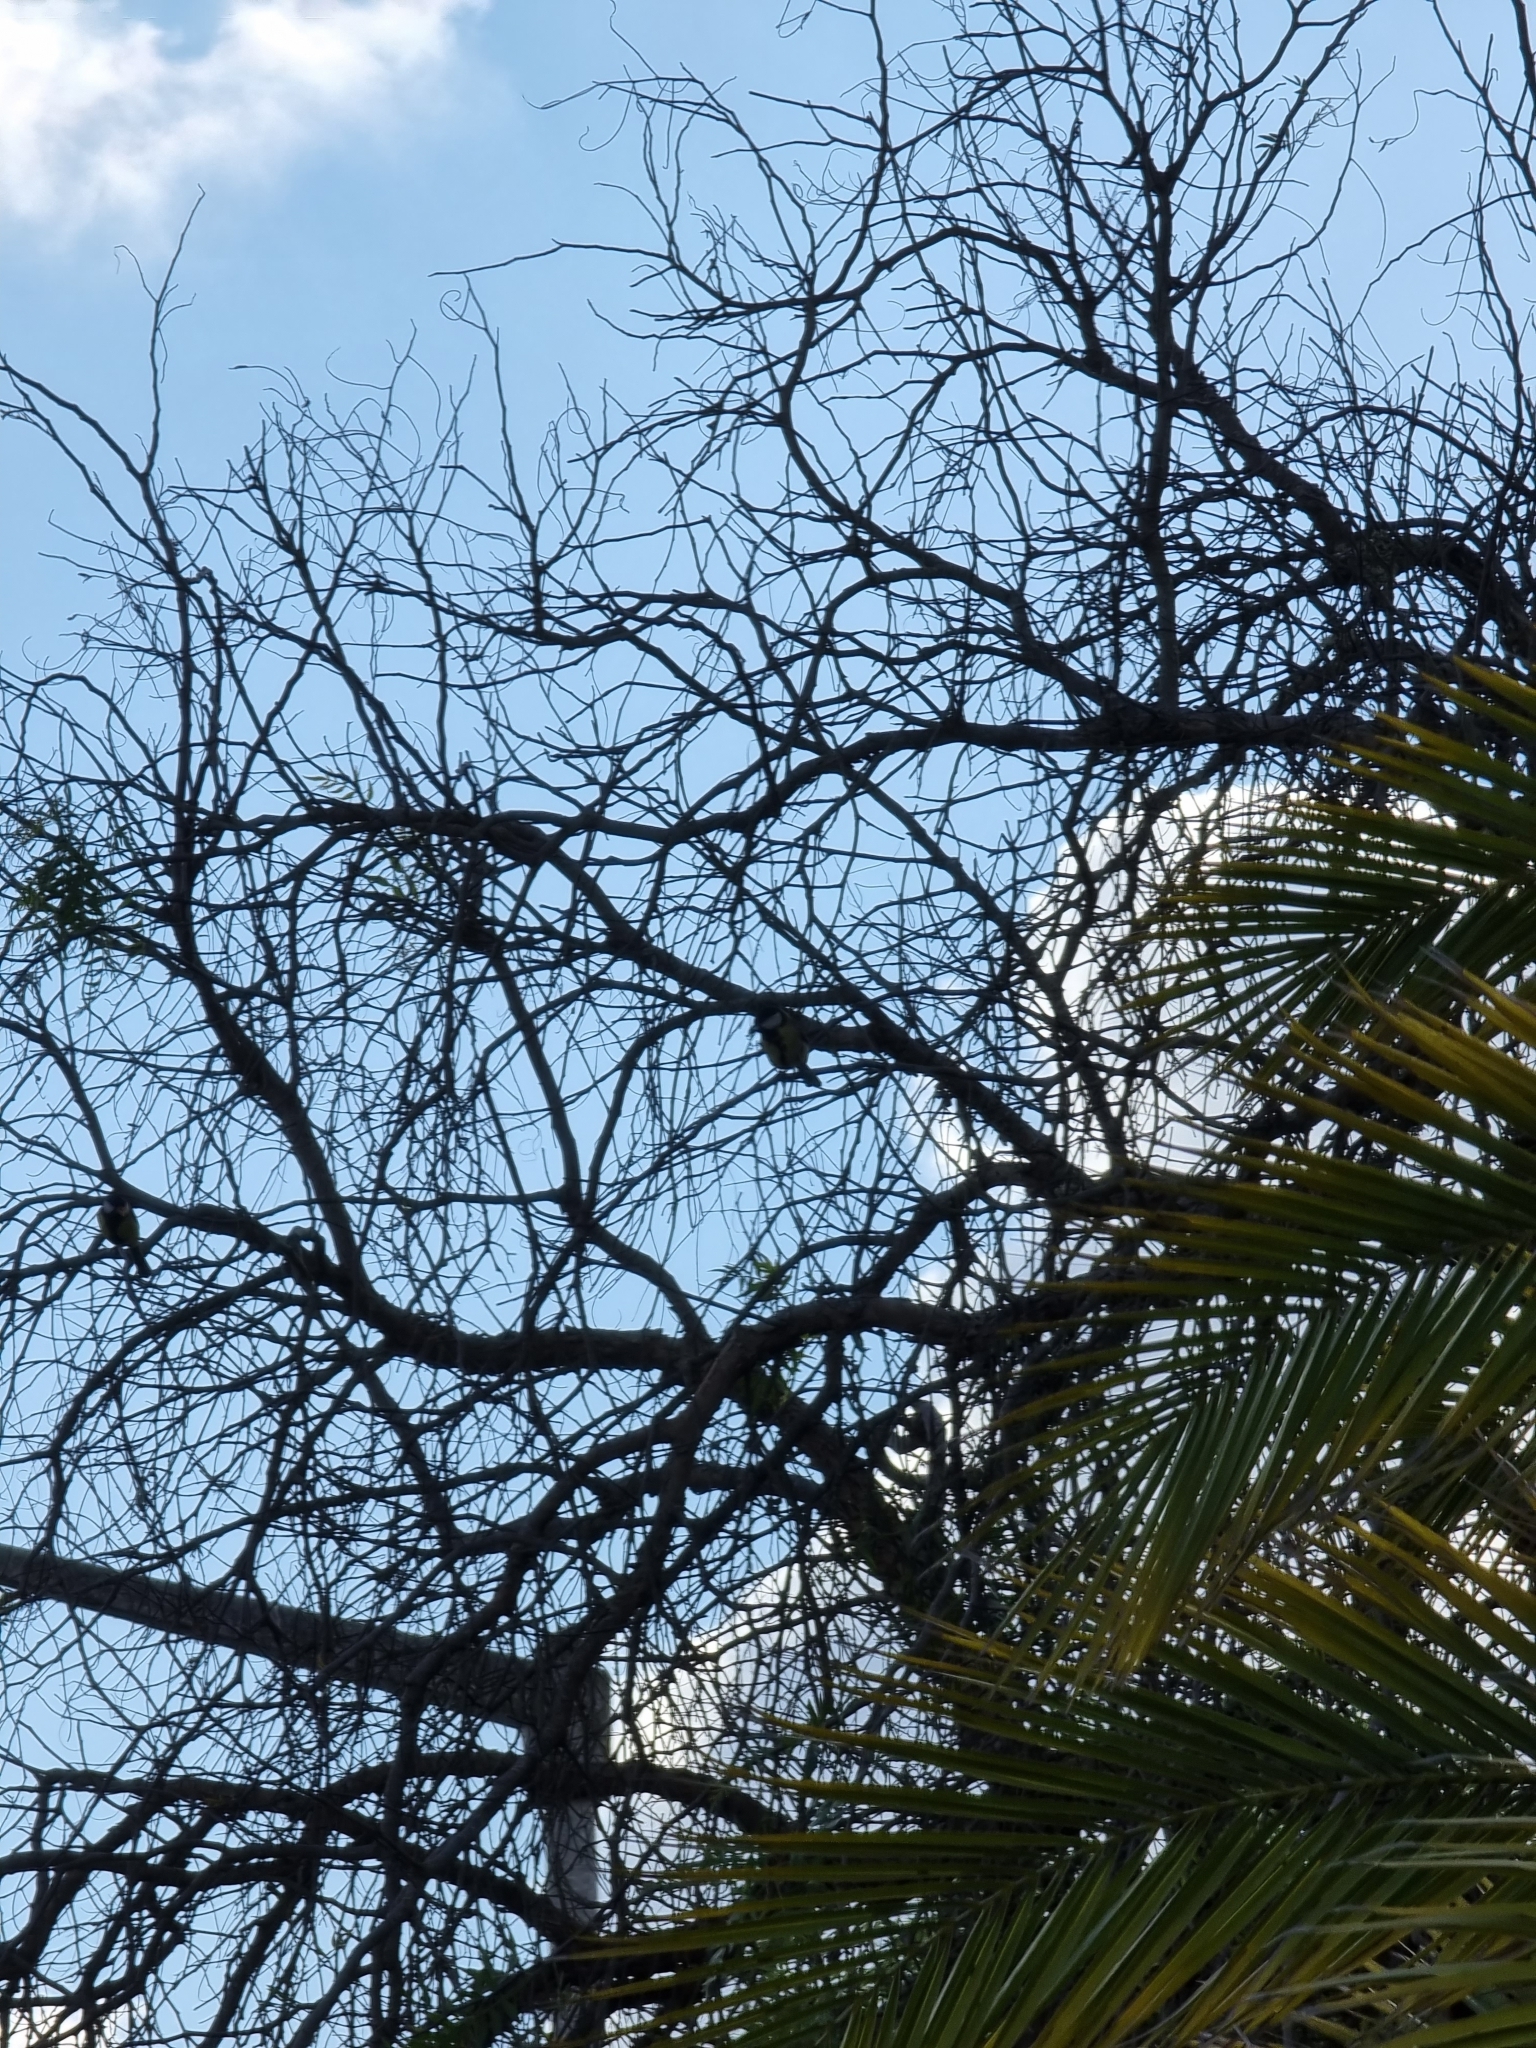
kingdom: Animalia
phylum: Chordata
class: Aves
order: Passeriformes
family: Paridae
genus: Parus
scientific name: Parus major
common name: Great tit
